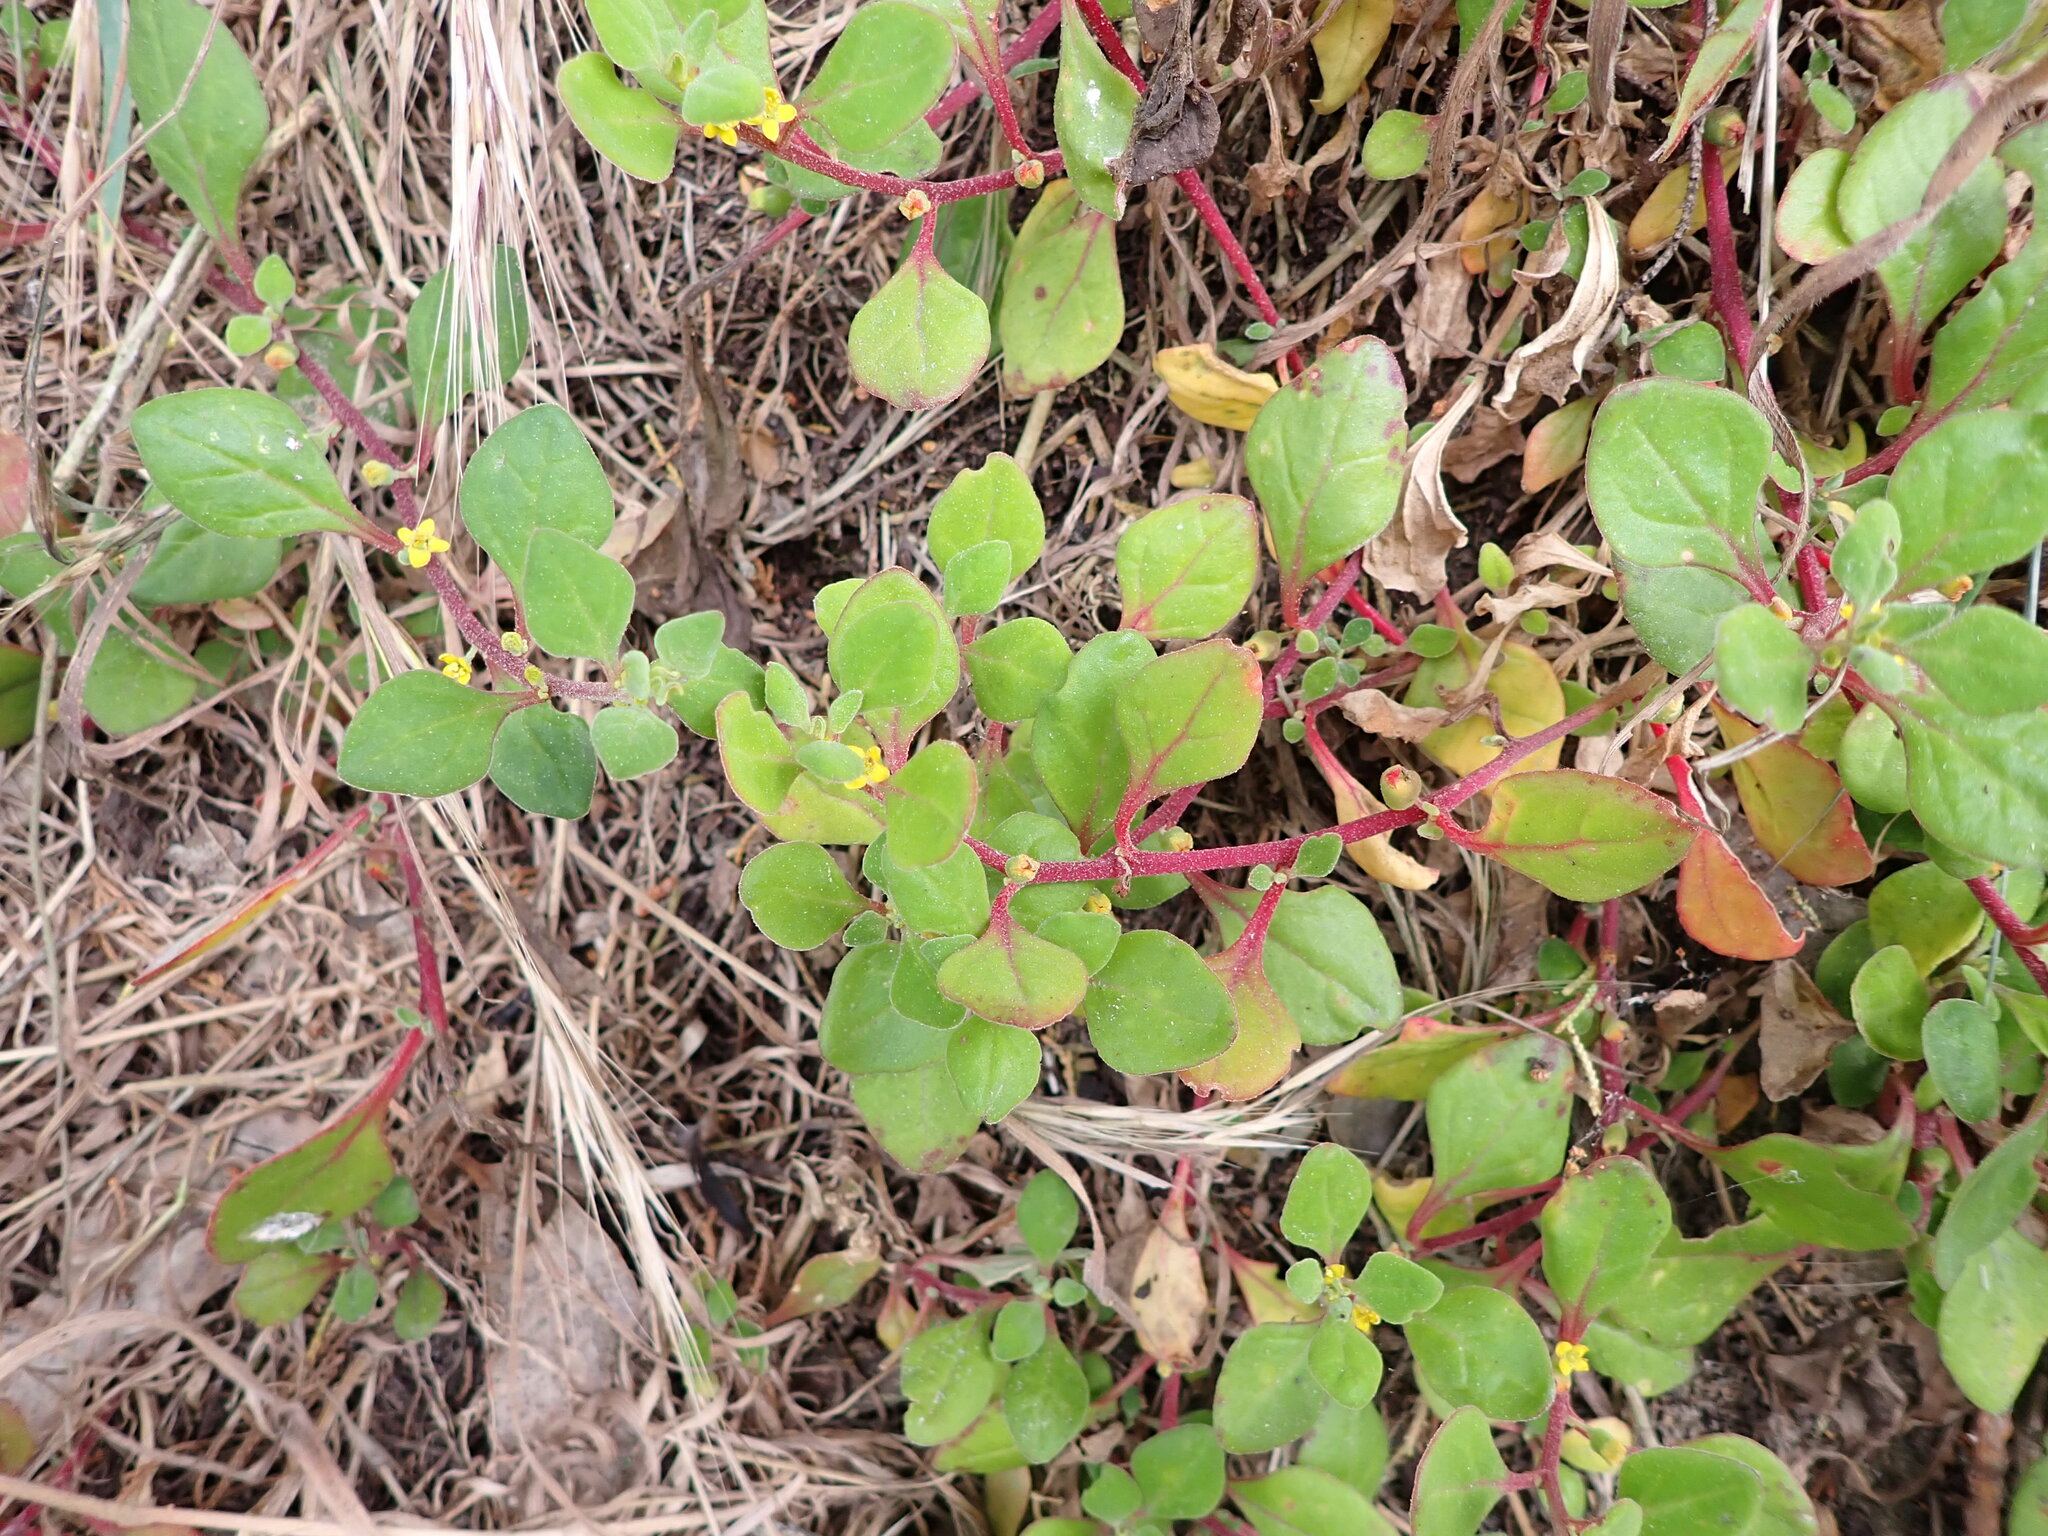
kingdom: Plantae
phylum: Tracheophyta
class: Magnoliopsida
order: Caryophyllales
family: Aizoaceae
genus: Tetragonia
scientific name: Tetragonia implexicoma
